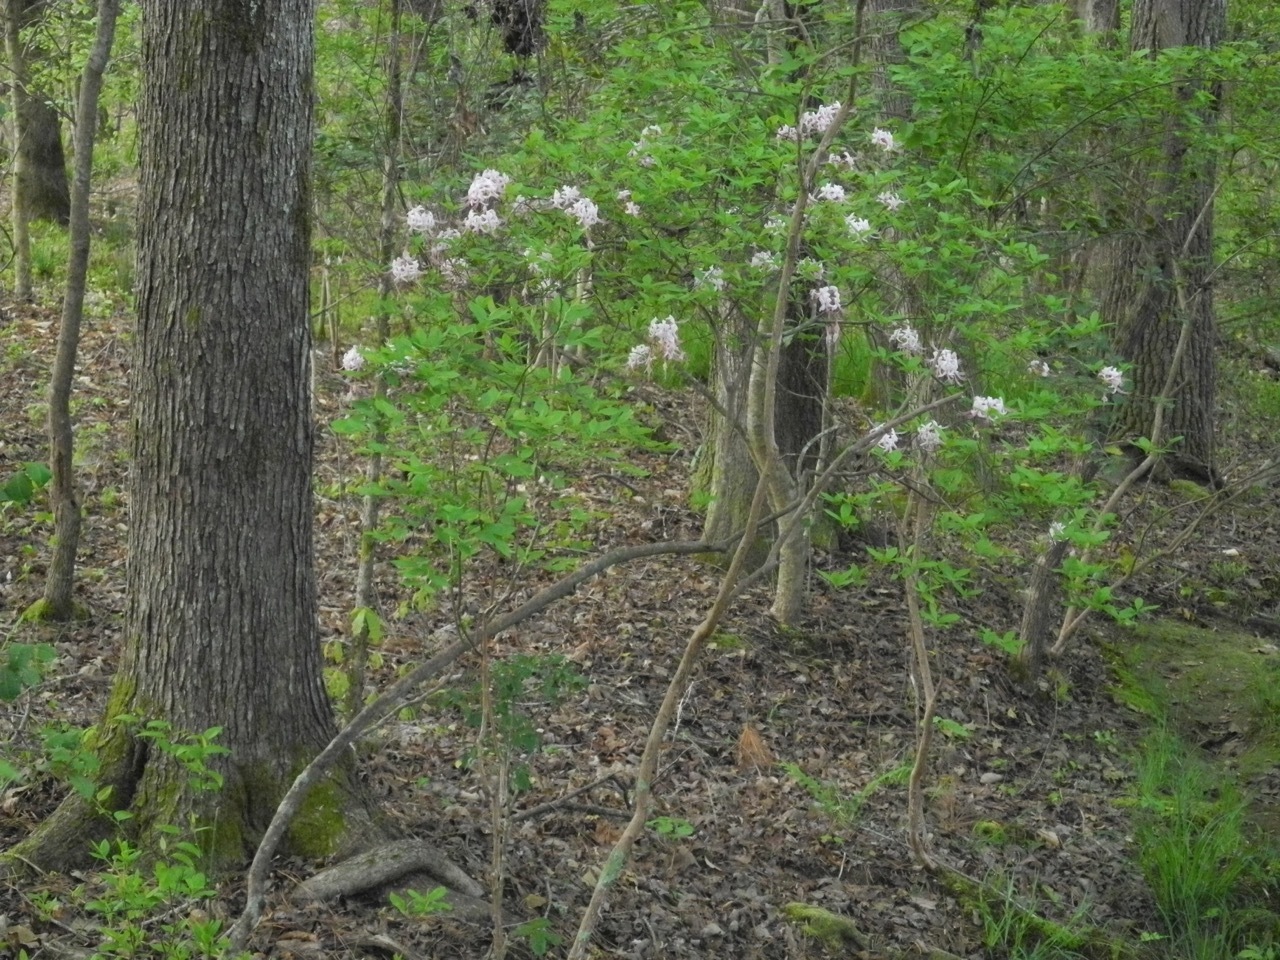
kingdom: Plantae
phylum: Tracheophyta
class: Magnoliopsida
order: Ericales
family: Ericaceae
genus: Rhododendron
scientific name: Rhododendron periclymenoides
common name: Election-pink
